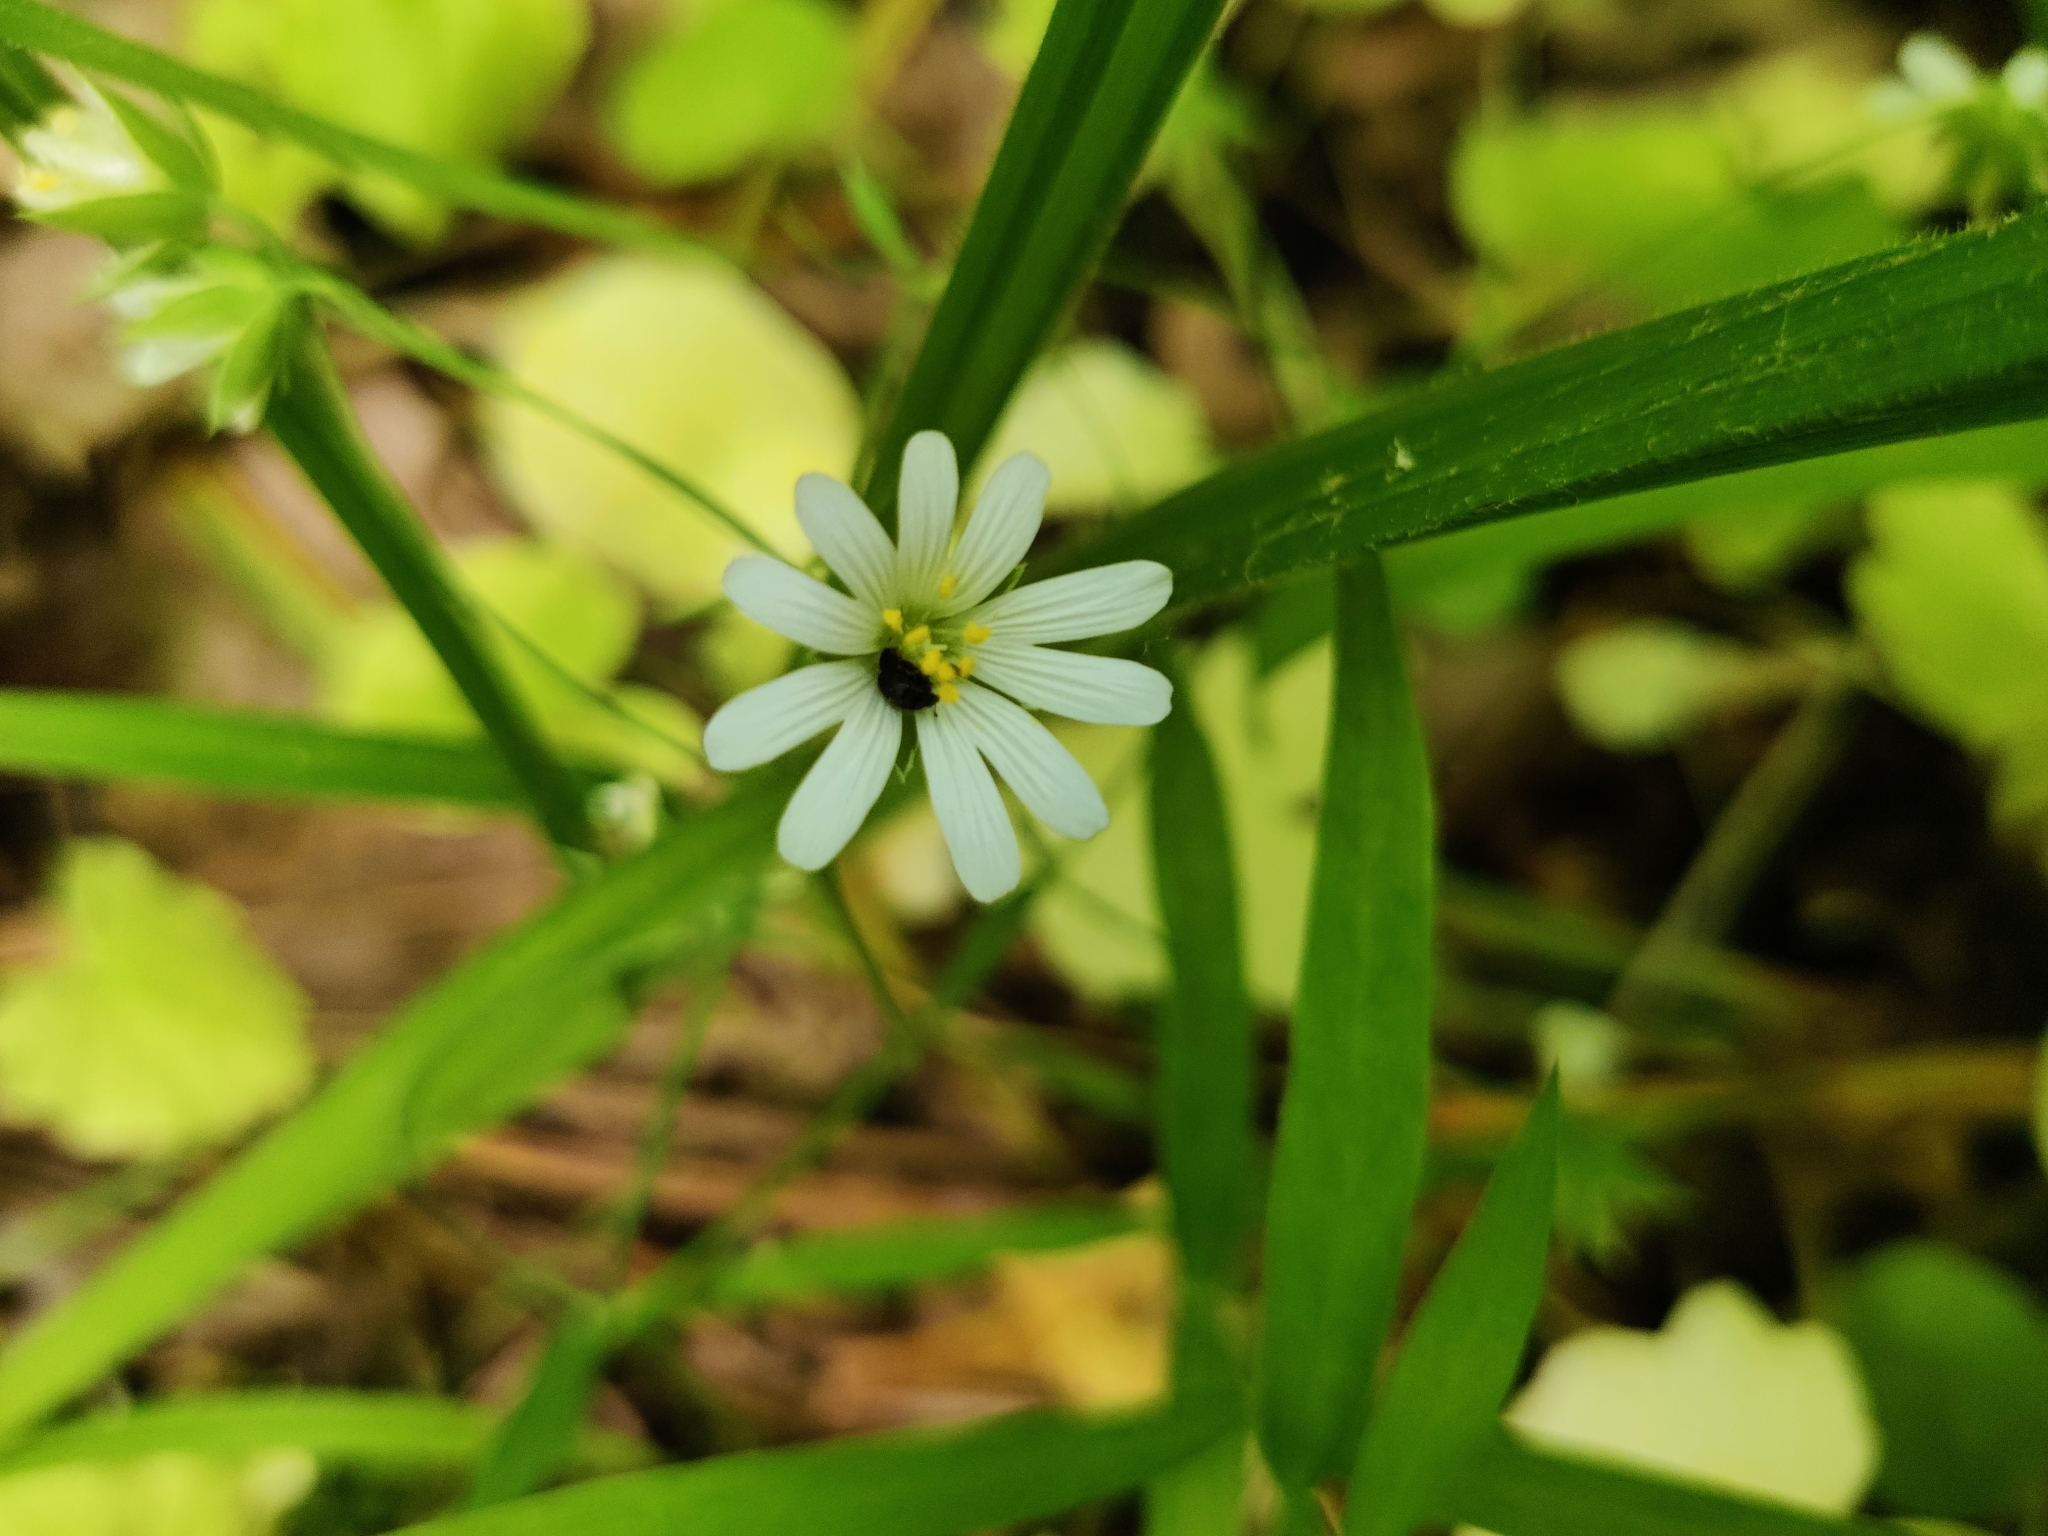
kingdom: Plantae
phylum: Tracheophyta
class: Magnoliopsida
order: Caryophyllales
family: Caryophyllaceae
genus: Rabelera
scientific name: Rabelera holostea
